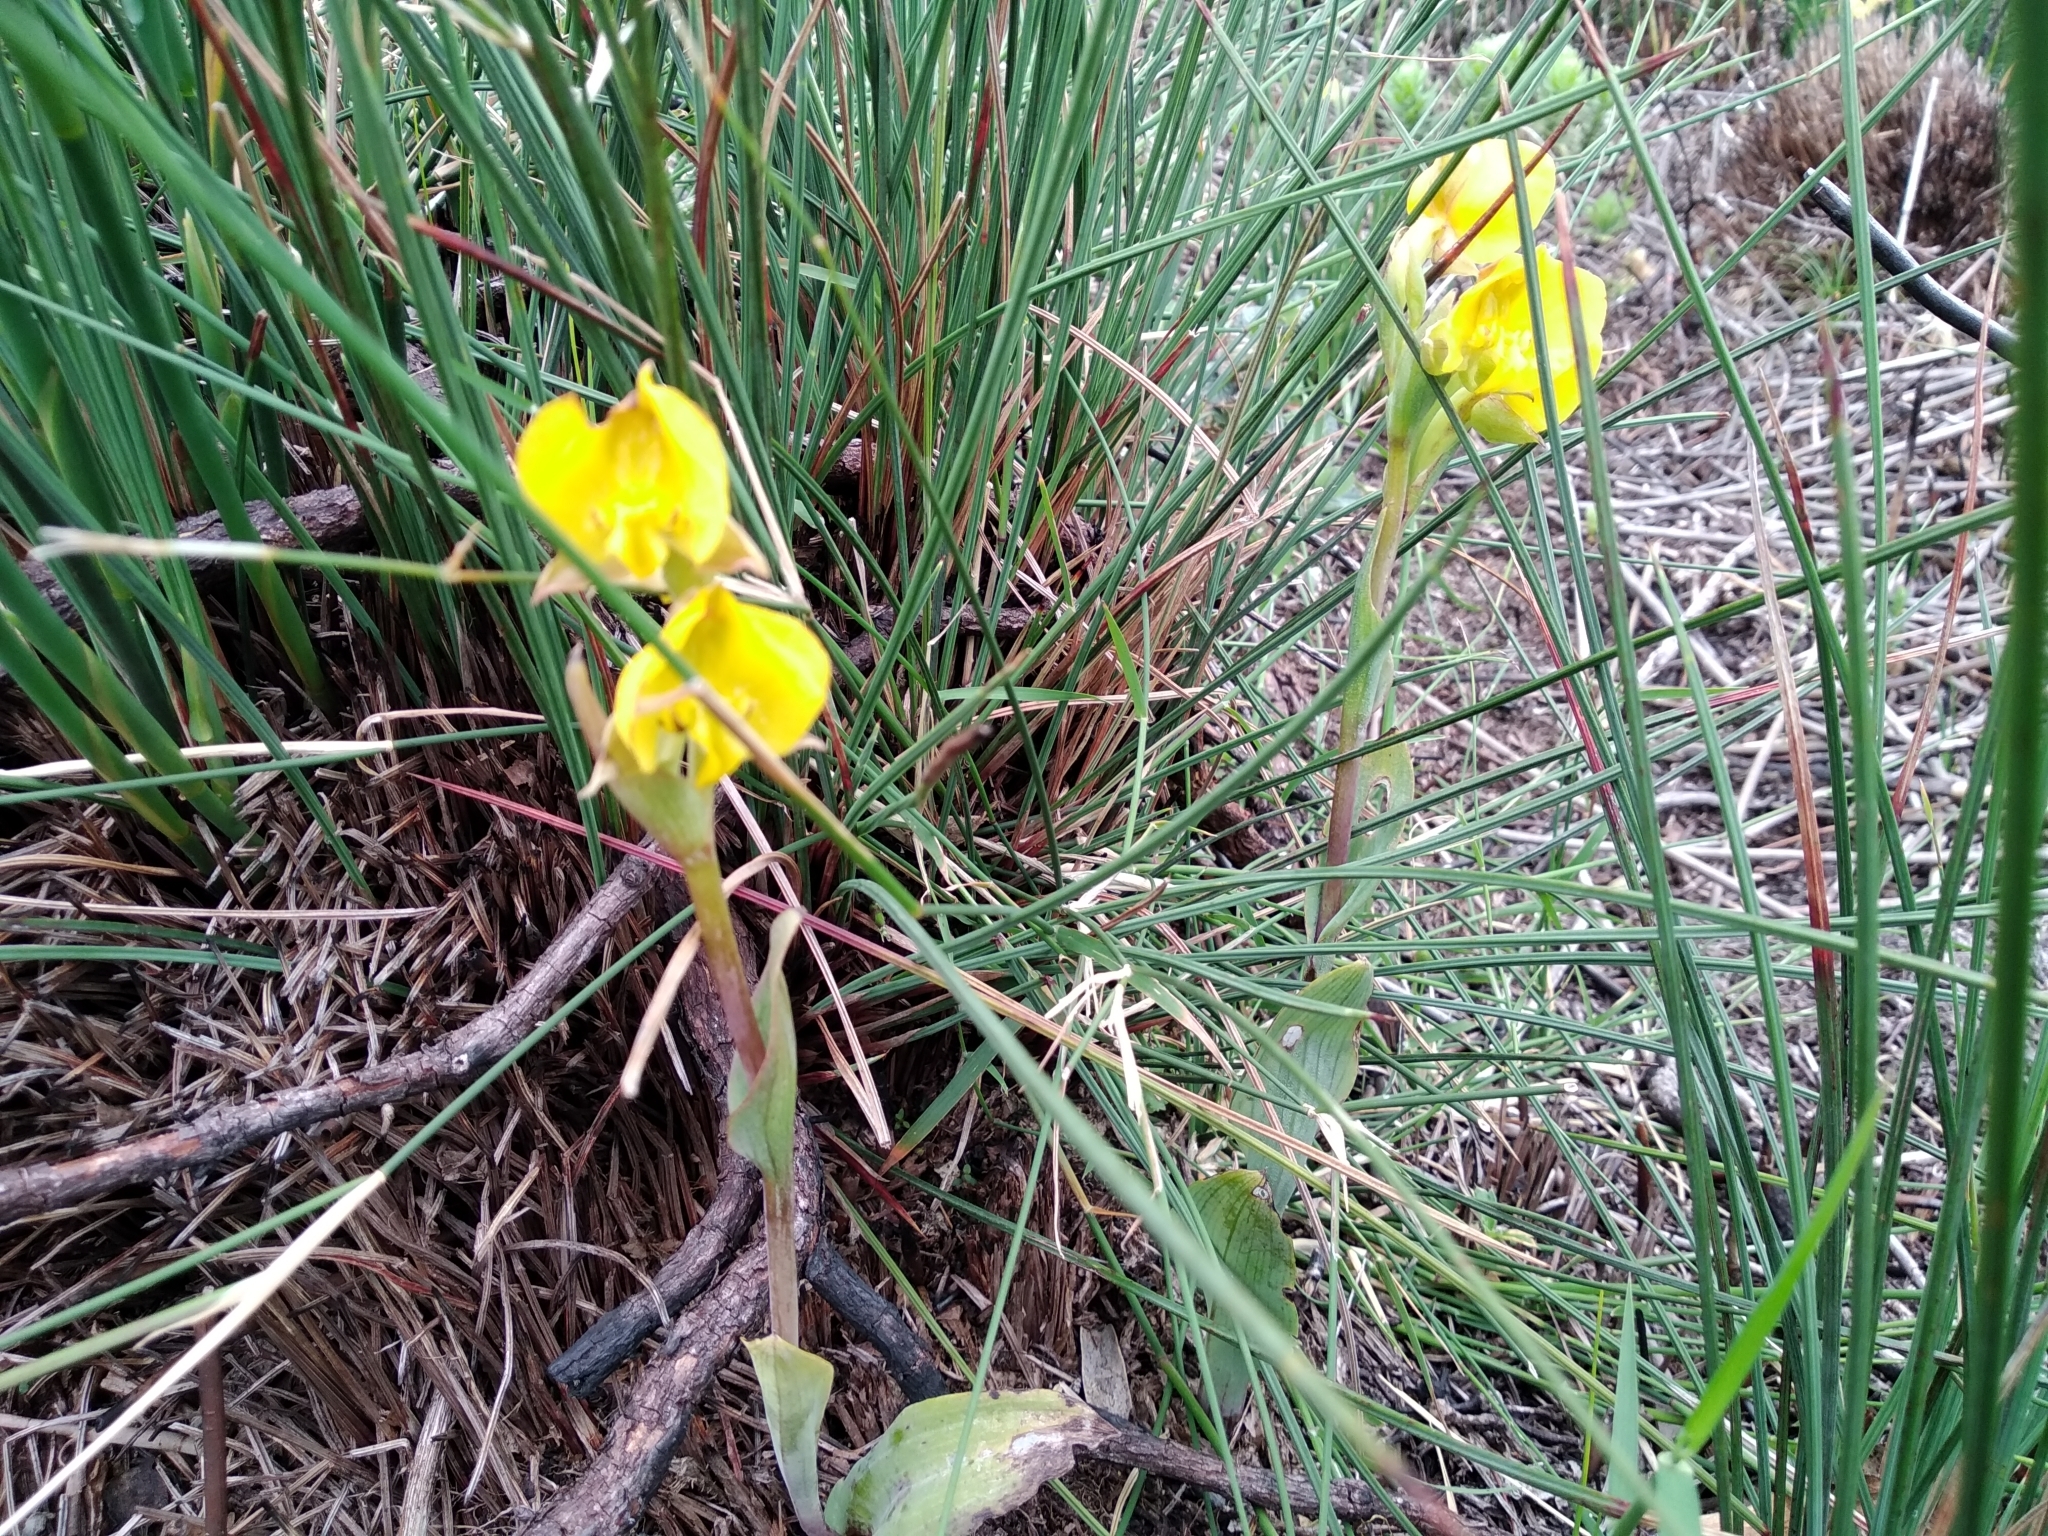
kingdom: Plantae
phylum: Tracheophyta
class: Liliopsida
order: Asparagales
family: Orchidaceae
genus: Pterygodium
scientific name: Pterygodium acutifolium
